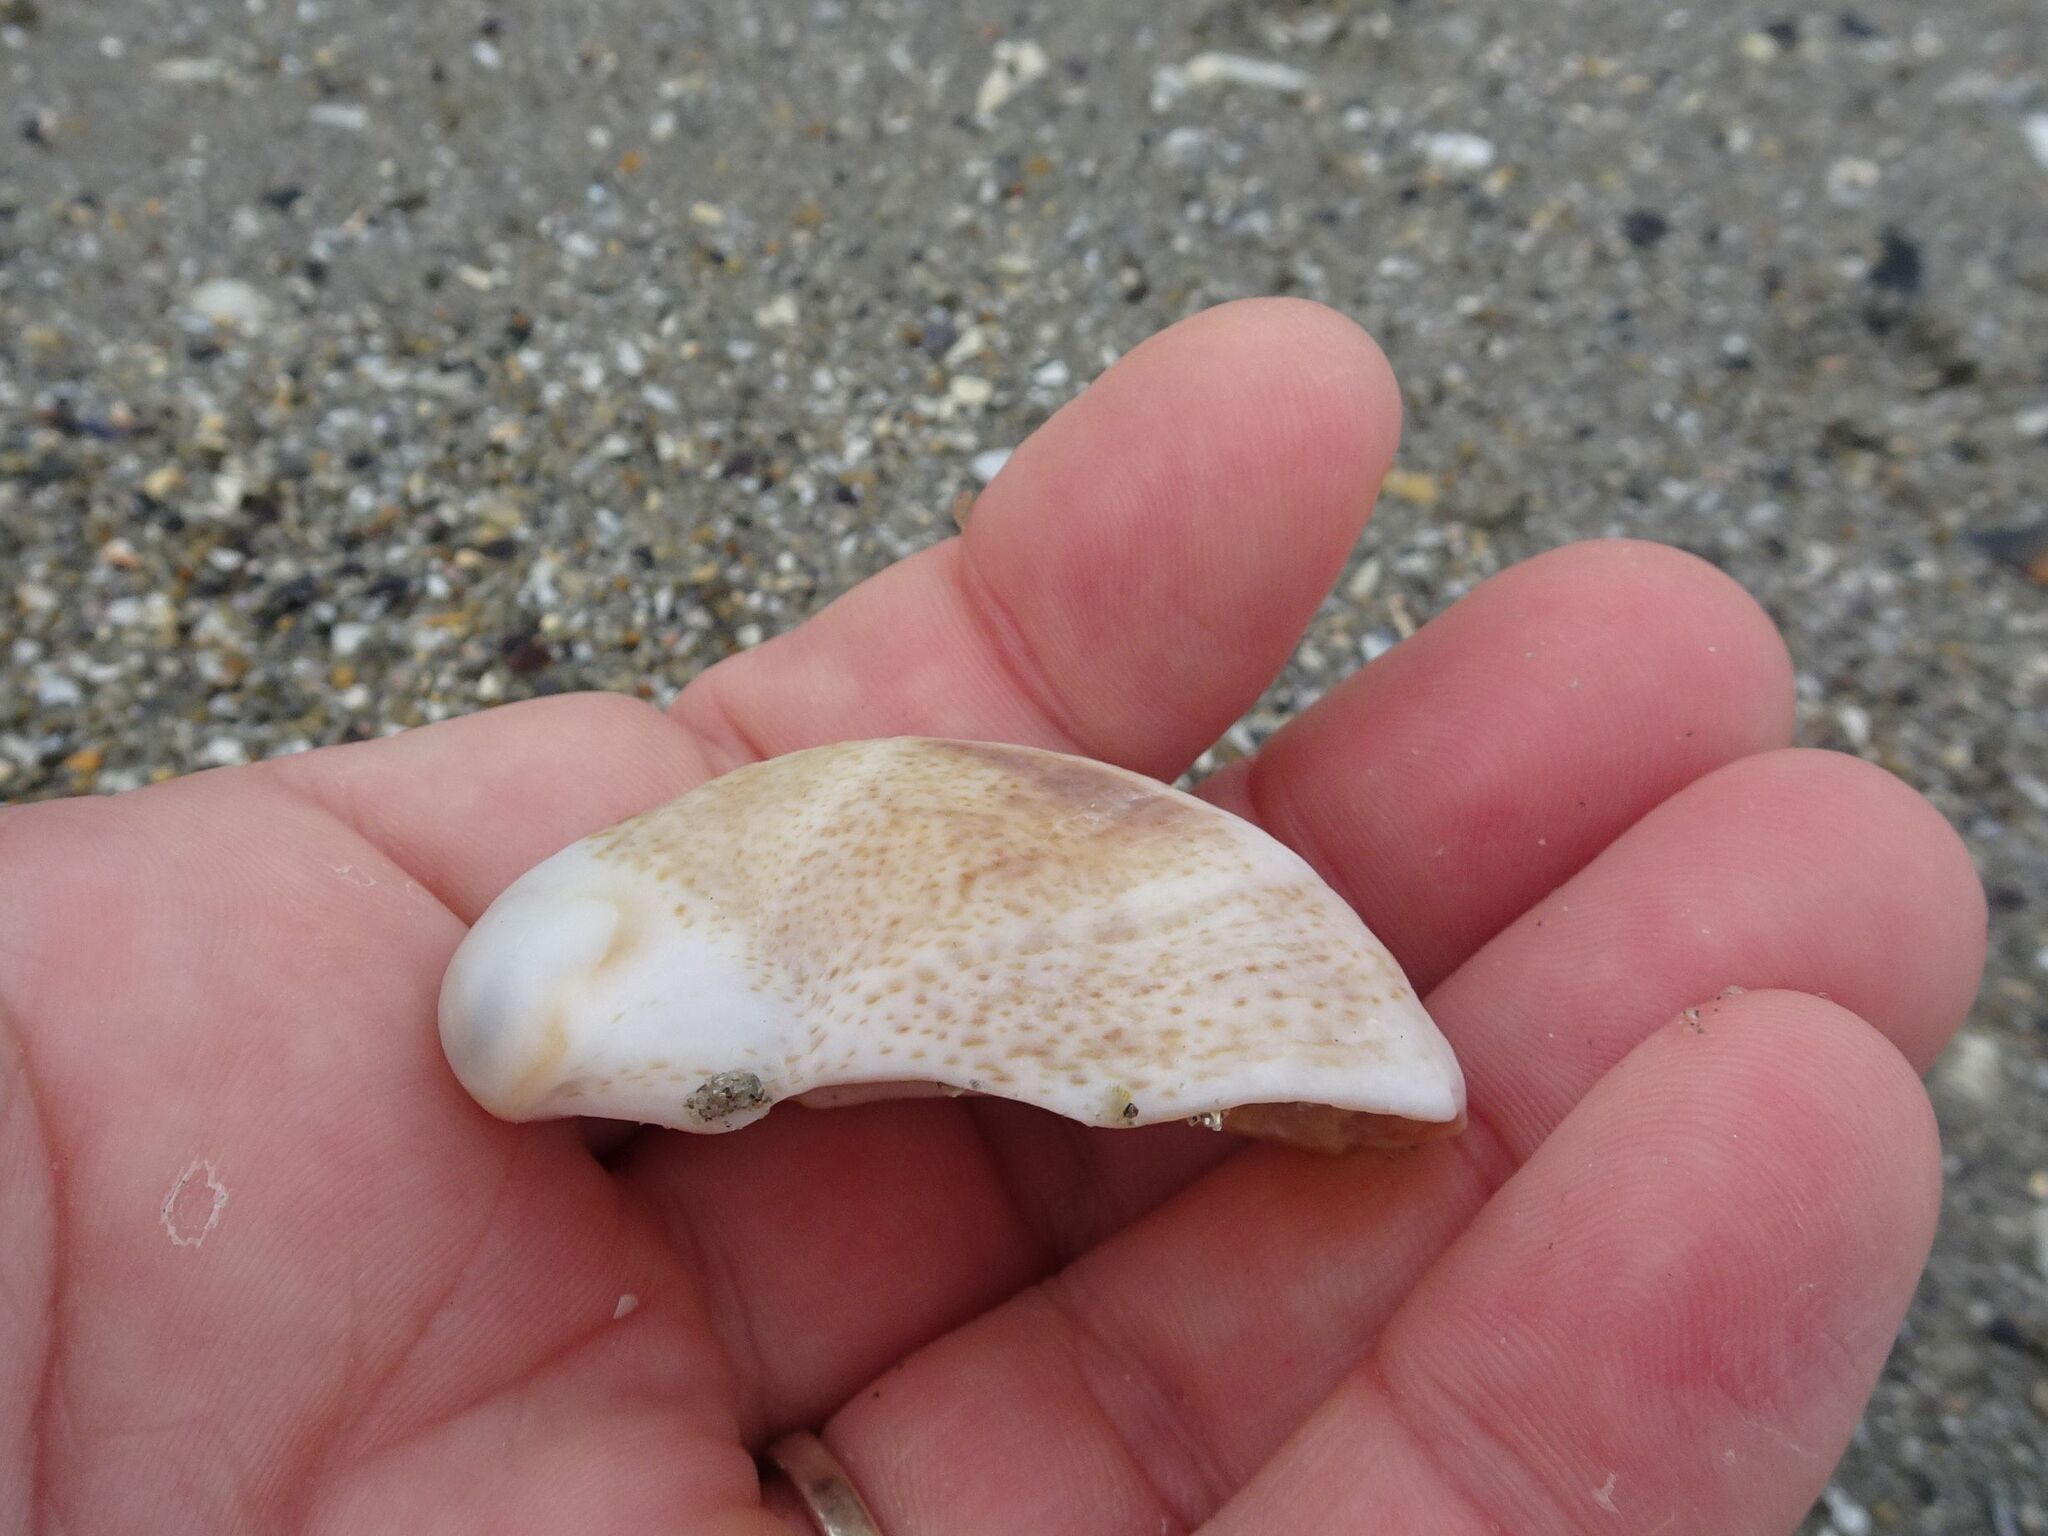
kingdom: Animalia
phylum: Mollusca
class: Gastropoda
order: Littorinimorpha
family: Calyptraeidae
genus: Crepidula
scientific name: Crepidula fornicata
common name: Slipper limpet
